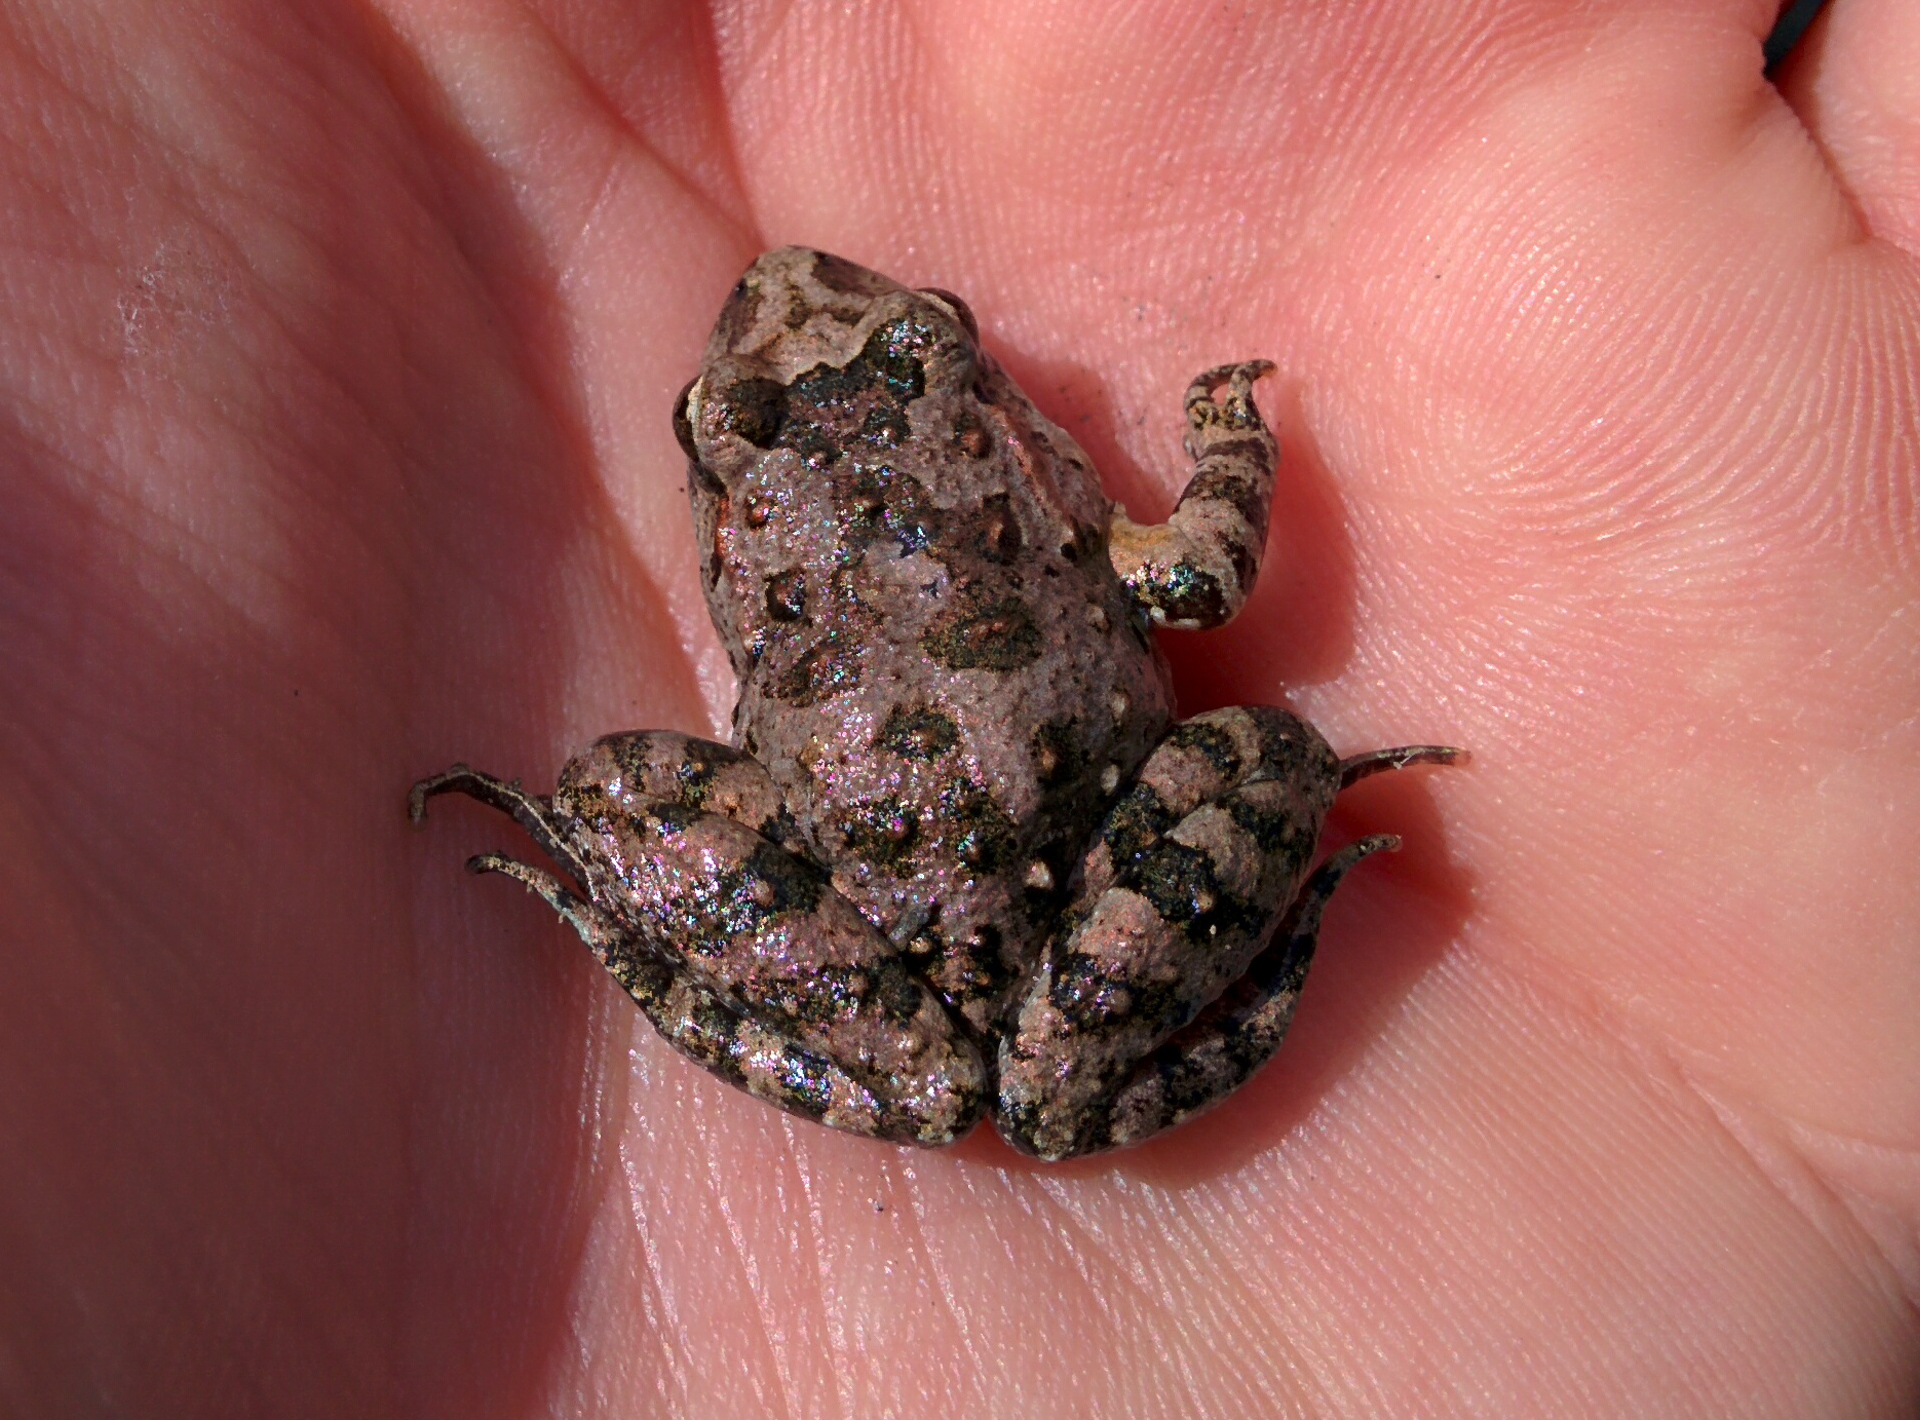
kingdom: Animalia
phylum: Chordata
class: Amphibia
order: Anura
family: Alytidae
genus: Discoglossus
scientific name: Discoglossus sardus
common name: Sardinia painted frog
